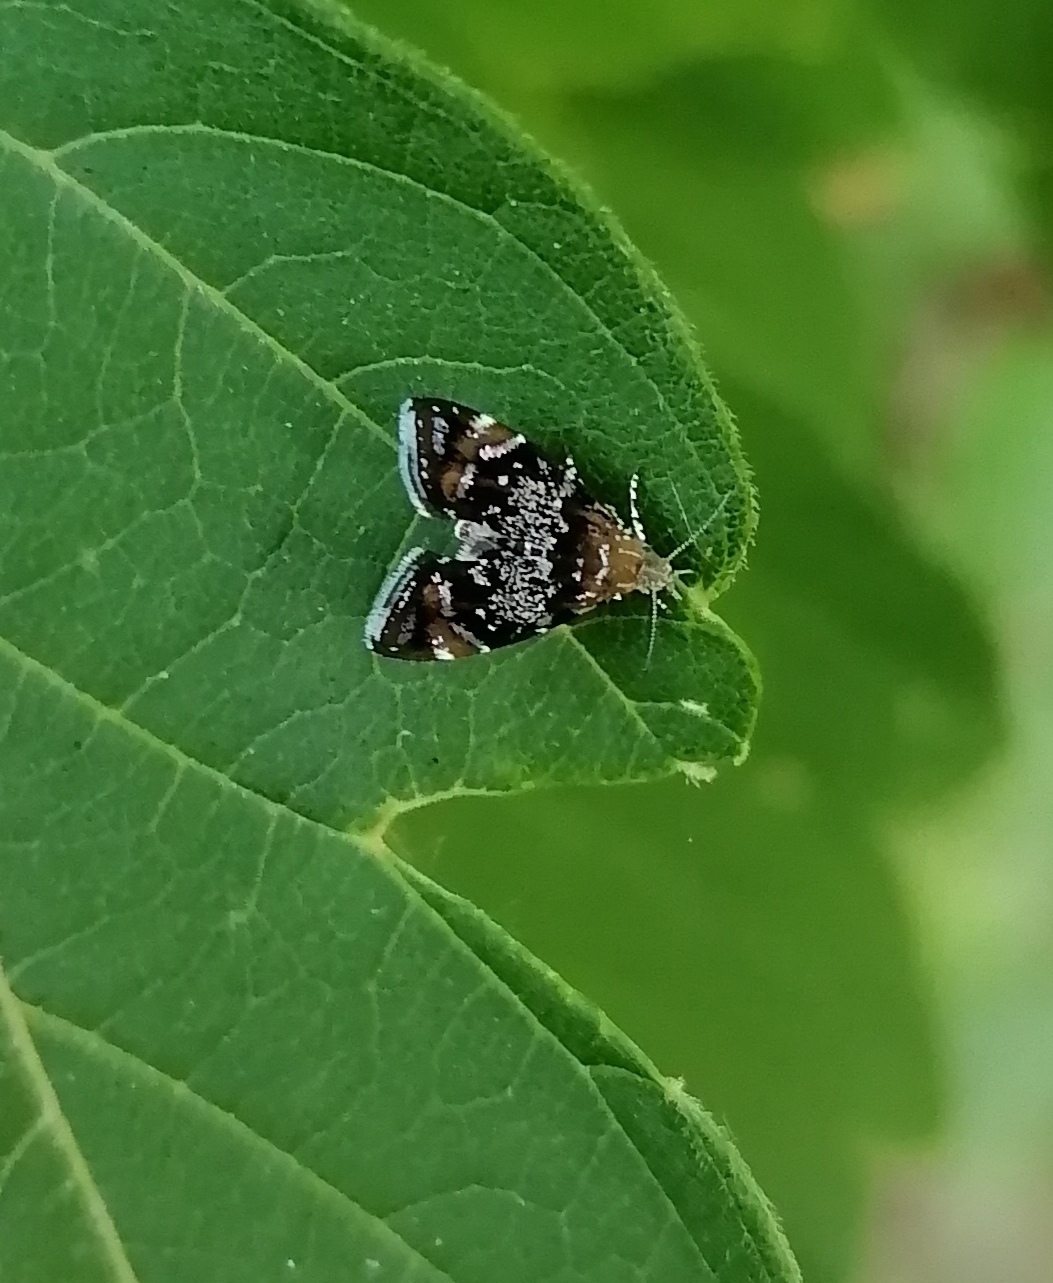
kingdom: Animalia
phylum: Arthropoda
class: Insecta
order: Lepidoptera
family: Choreutidae
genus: Prochoreutis
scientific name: Prochoreutis sehestediana
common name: Silver-dot twitcher
